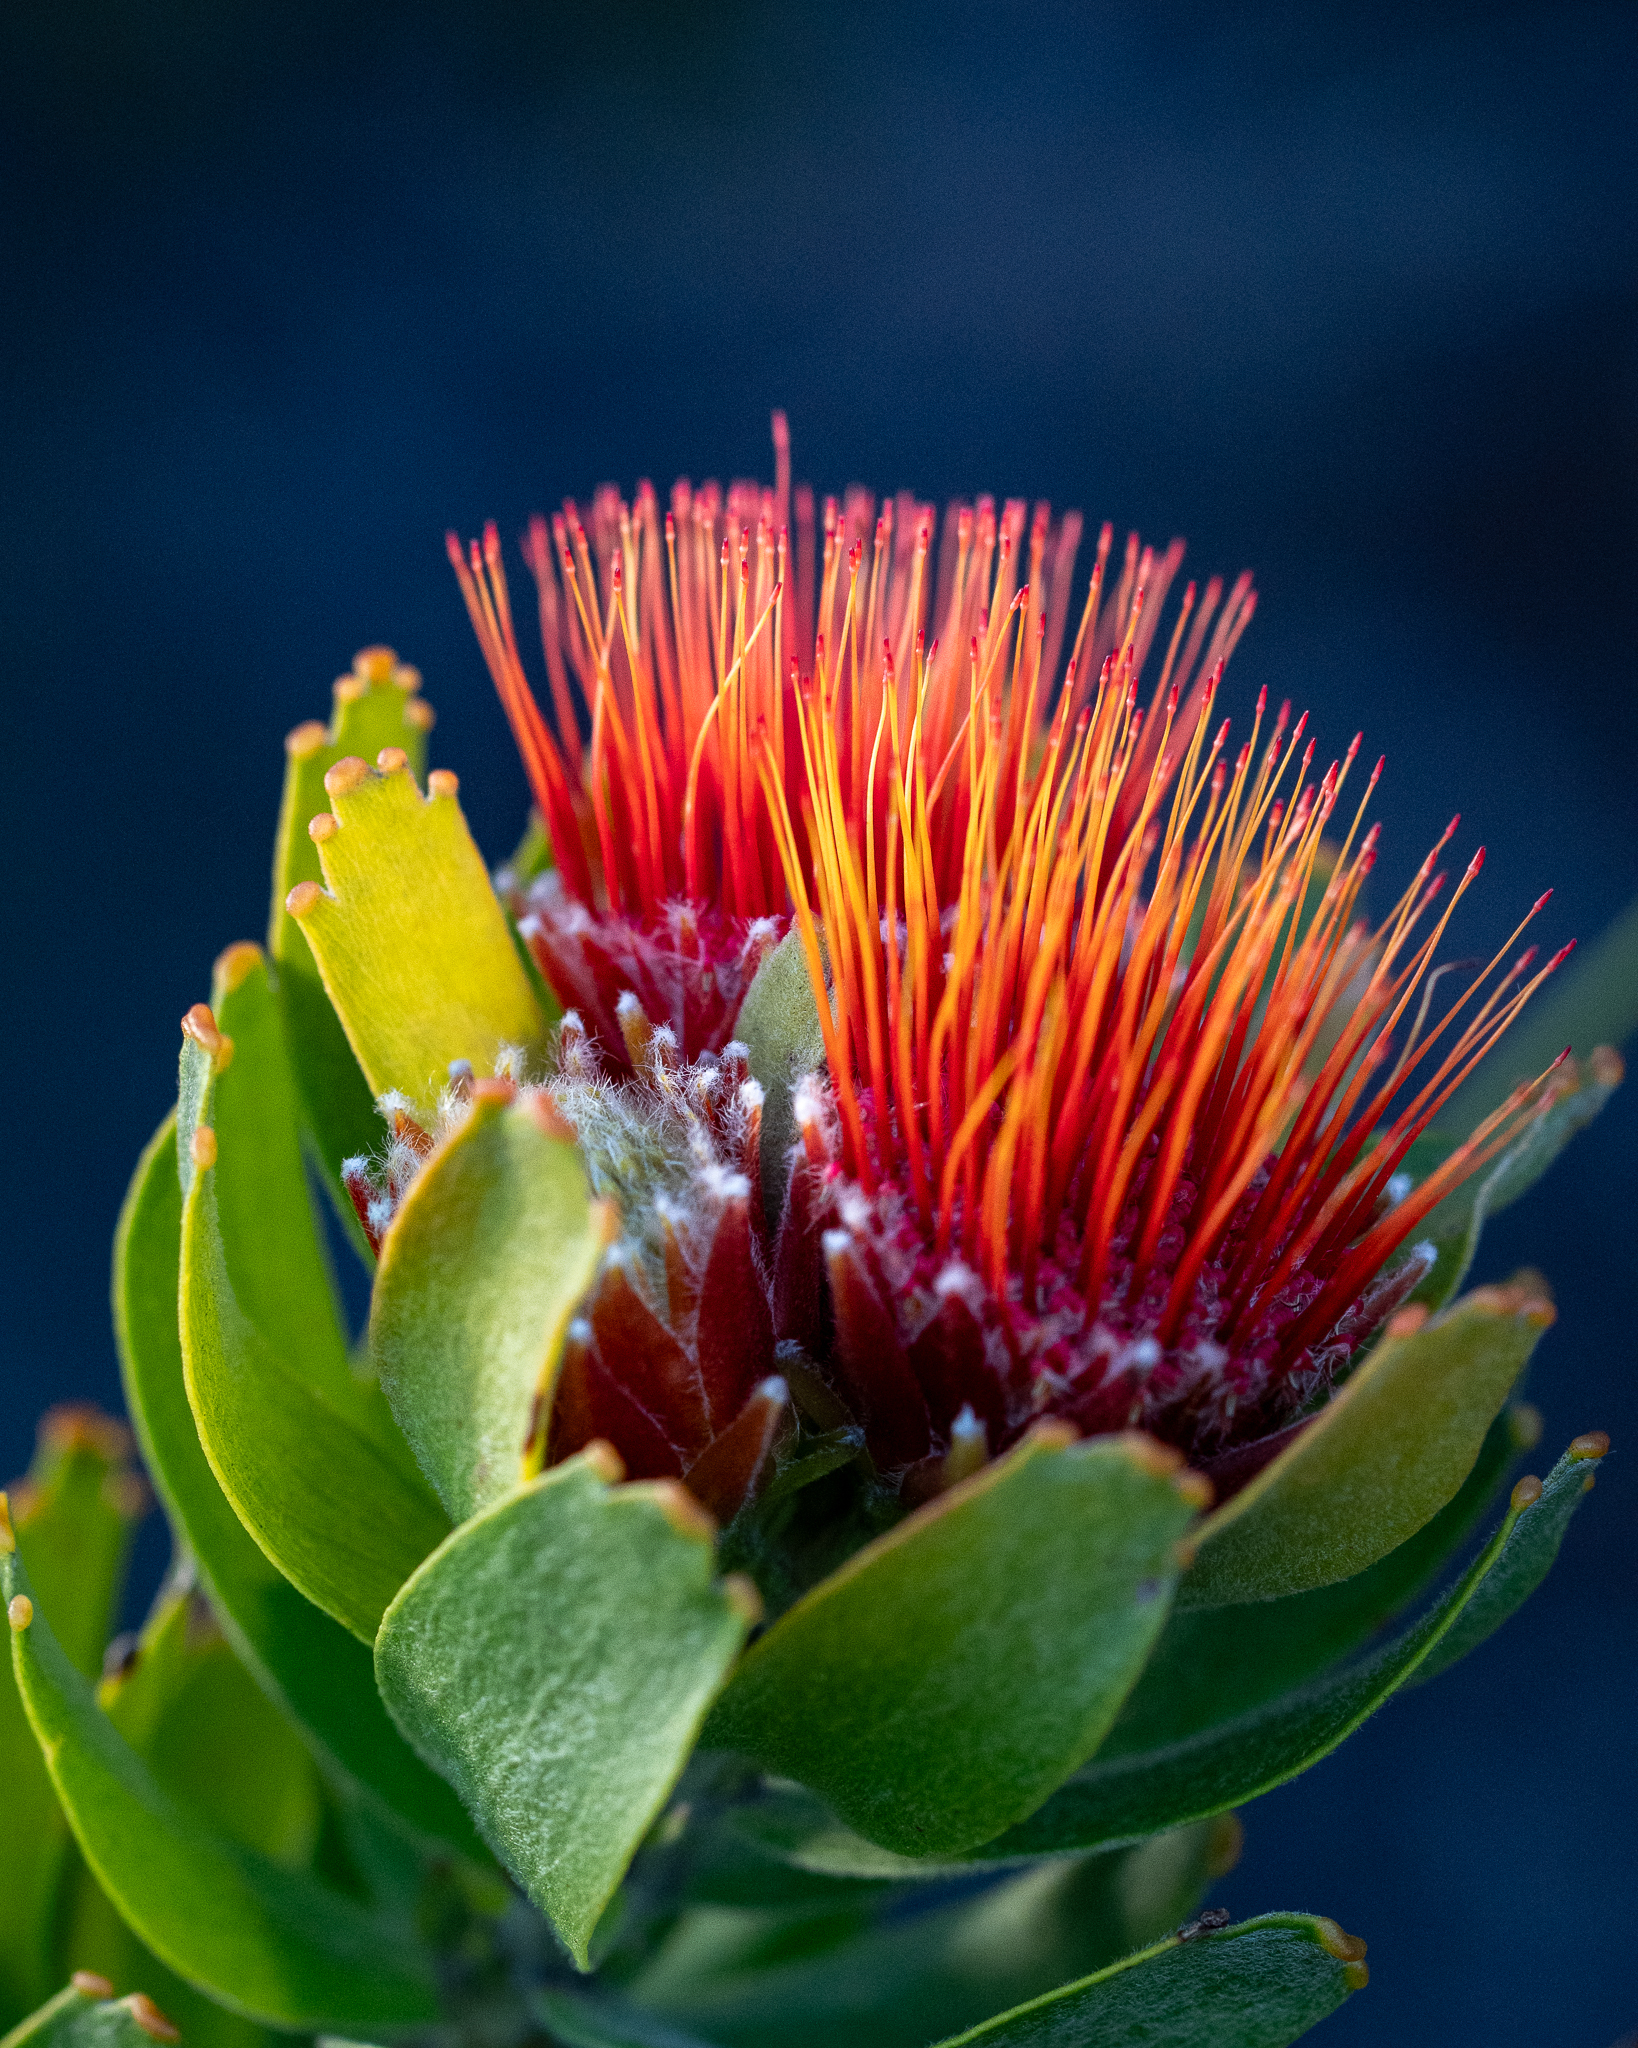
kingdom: Plantae
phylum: Tracheophyta
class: Magnoliopsida
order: Proteales
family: Proteaceae
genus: Leucospermum
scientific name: Leucospermum oleifolium
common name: Matches
